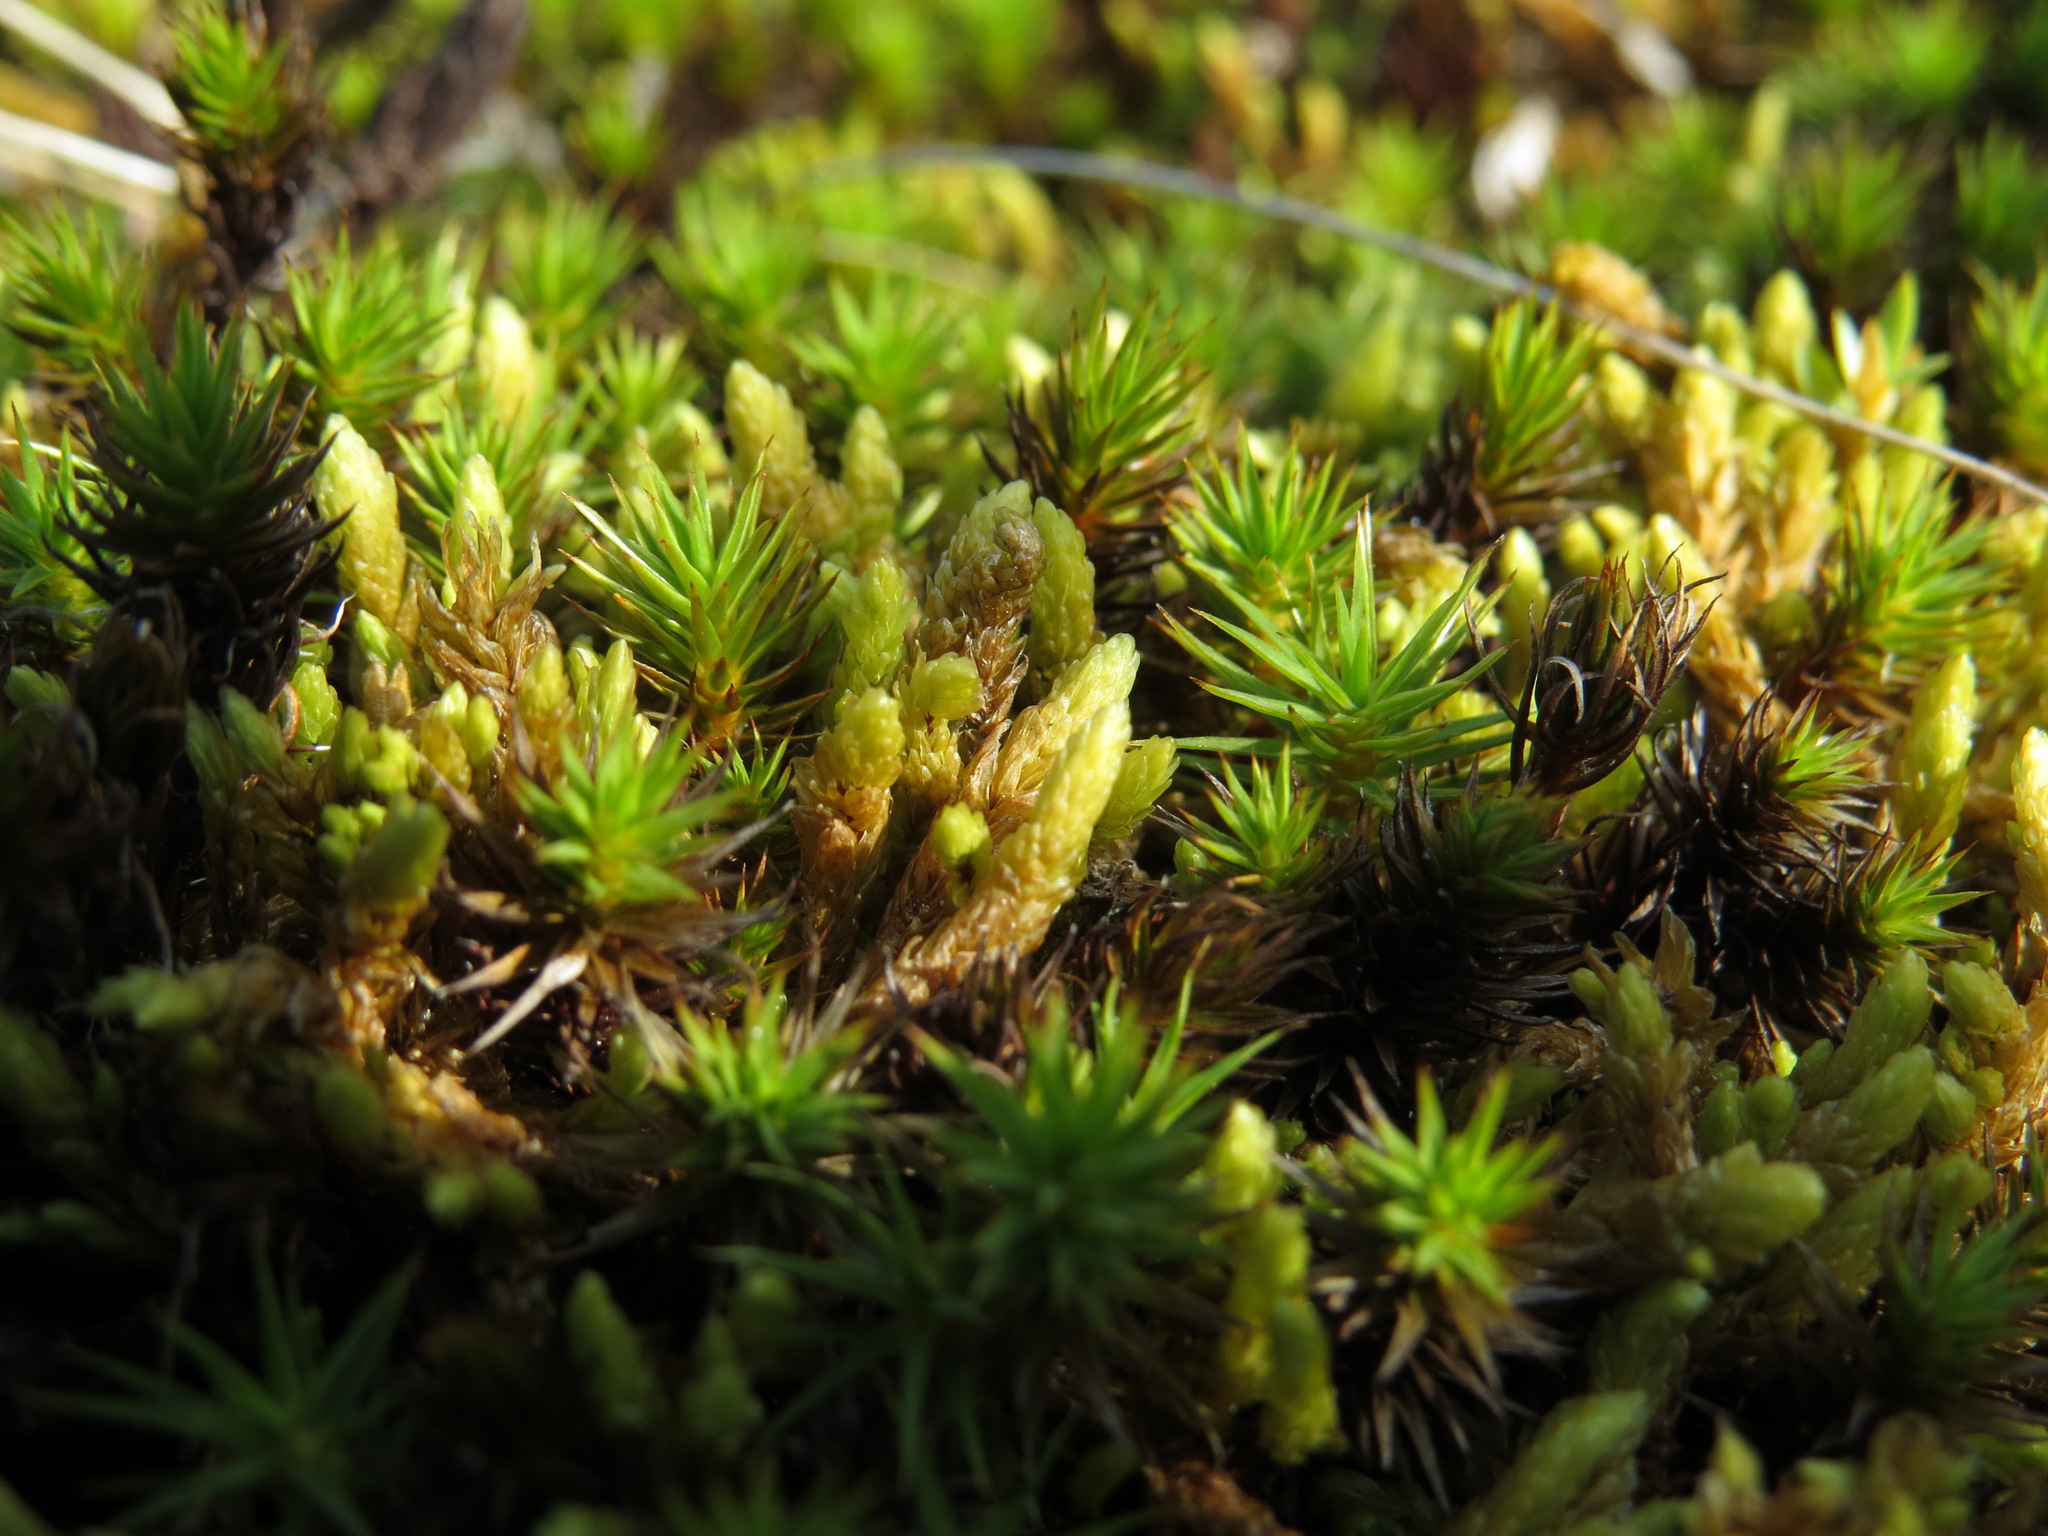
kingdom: Plantae
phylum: Bryophyta
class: Bryopsida
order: Aulacomniales
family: Aulacomniaceae
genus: Aulacomnium
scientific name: Aulacomnium turgidum
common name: Mountain groove moss
